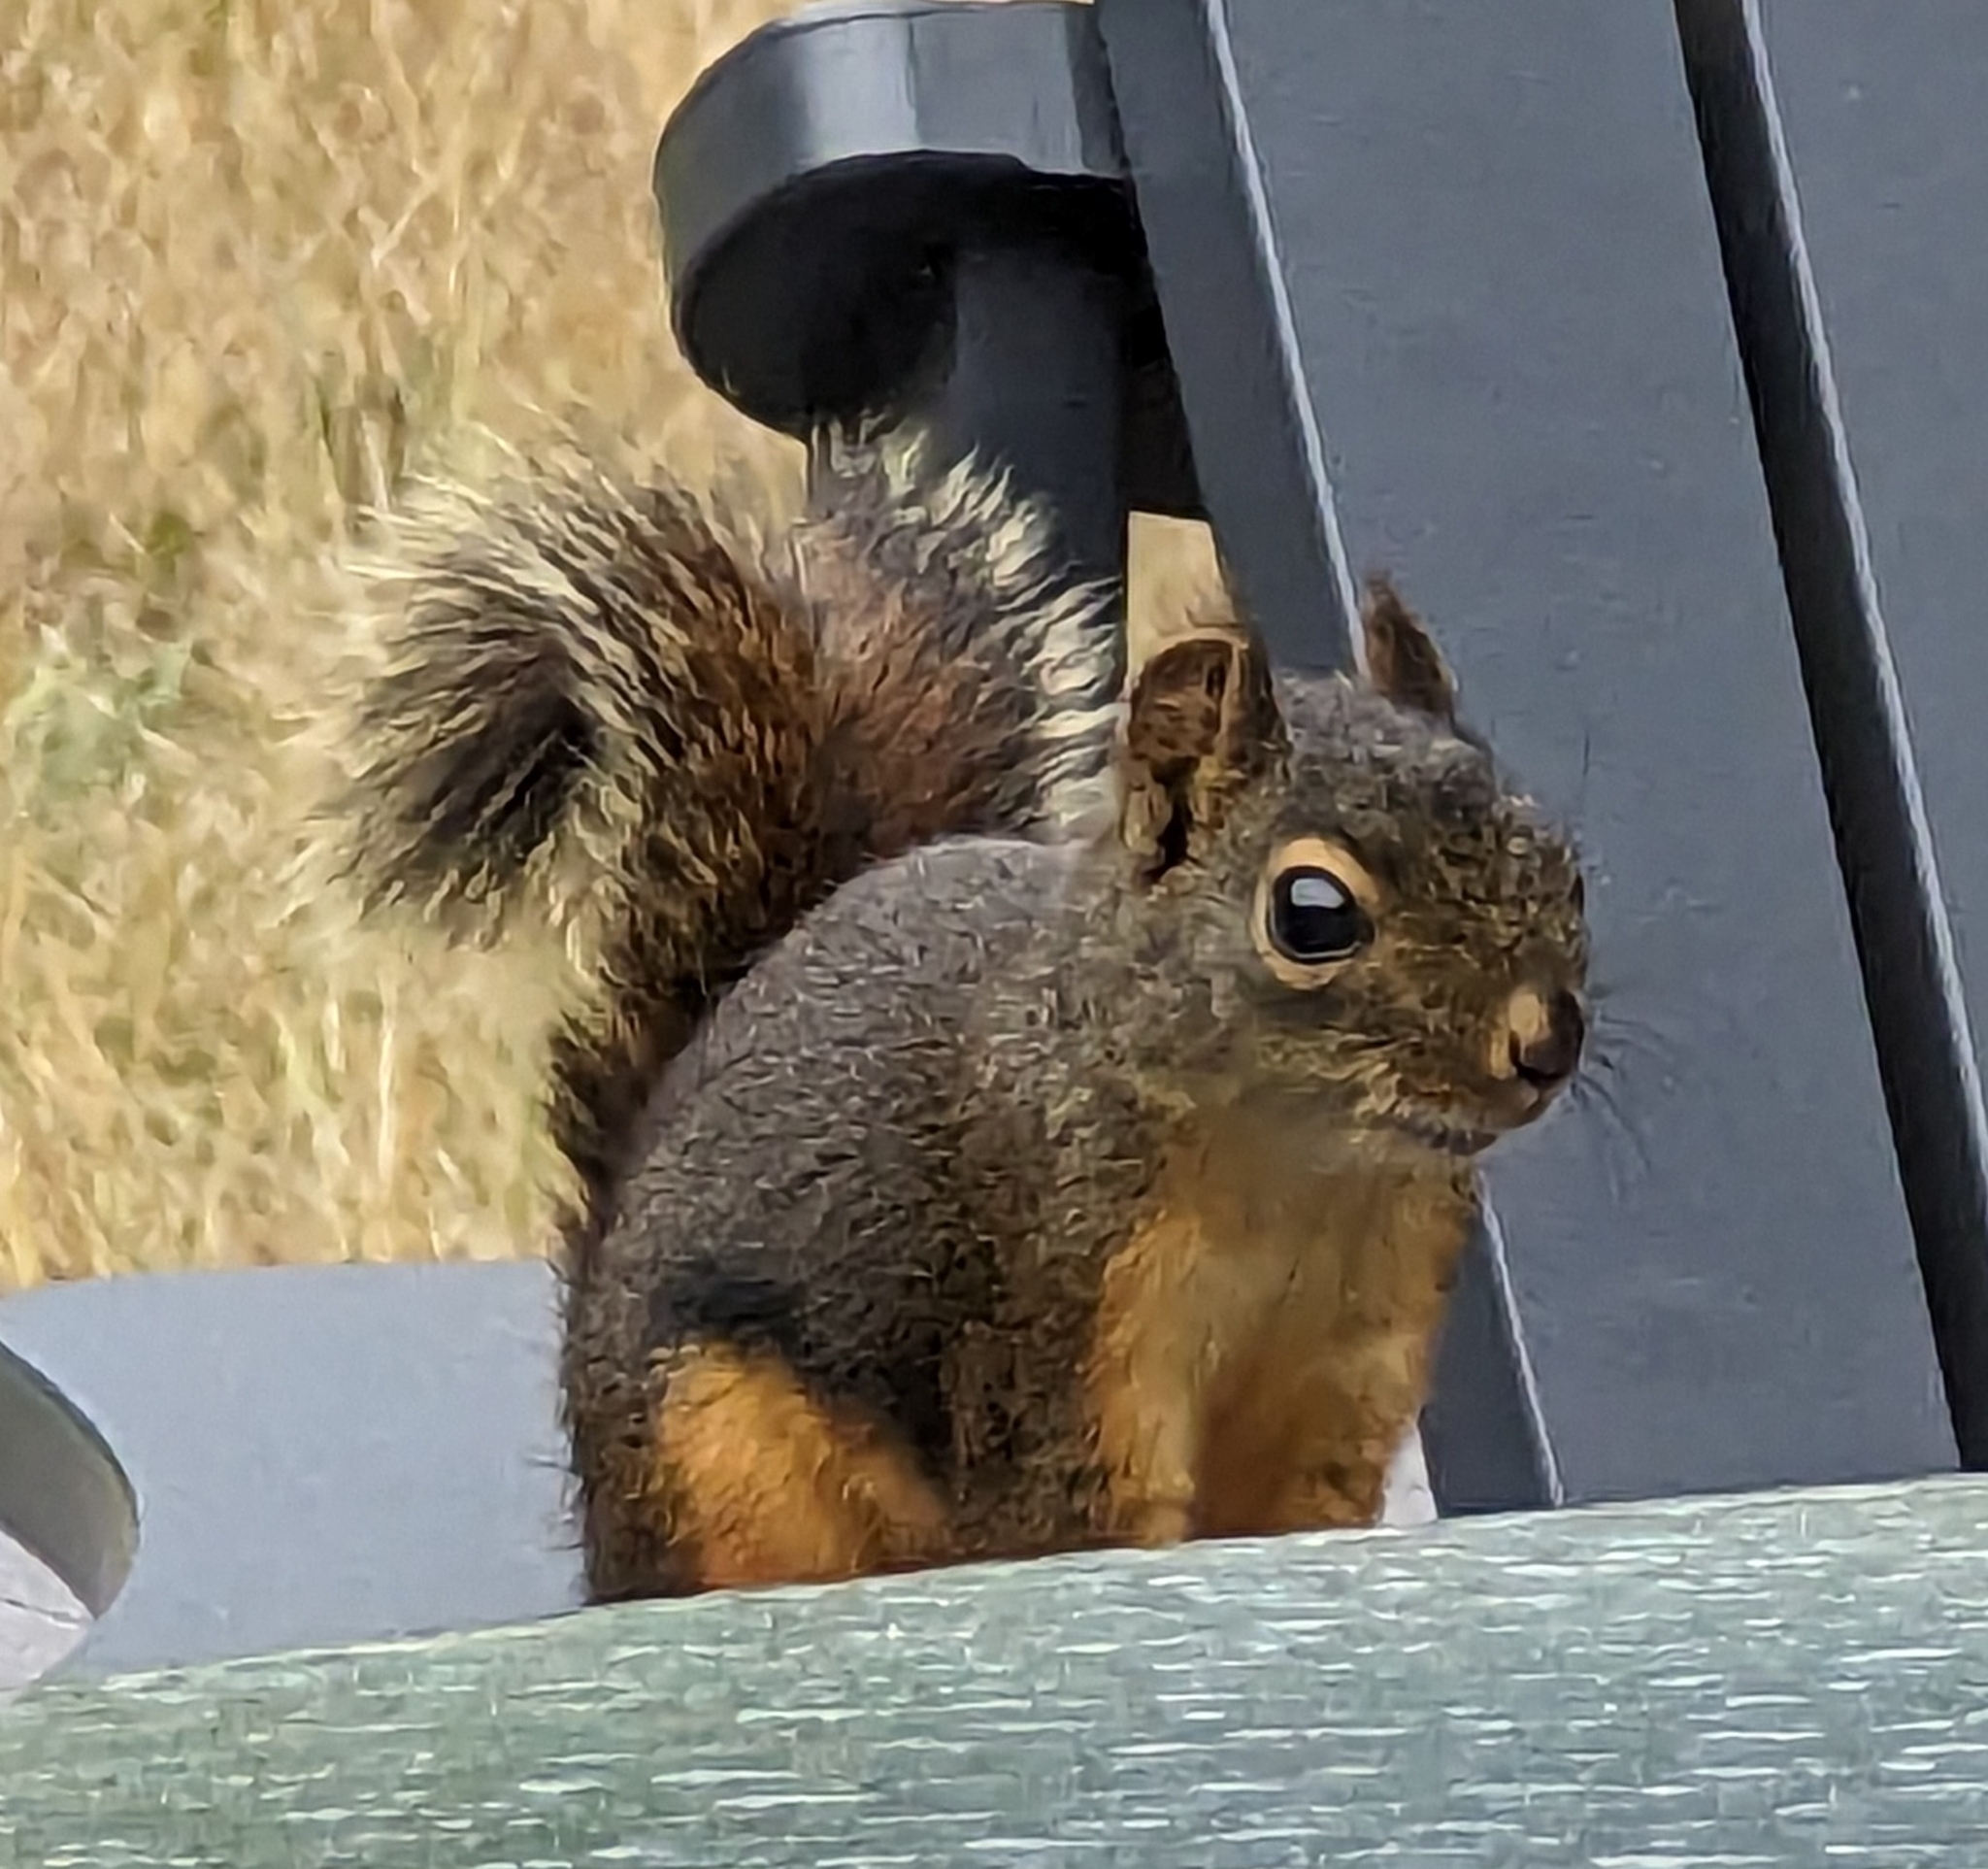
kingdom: Animalia
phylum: Chordata
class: Mammalia
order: Rodentia
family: Sciuridae
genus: Tamiasciurus
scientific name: Tamiasciurus douglasii
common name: Douglas's squirrel
